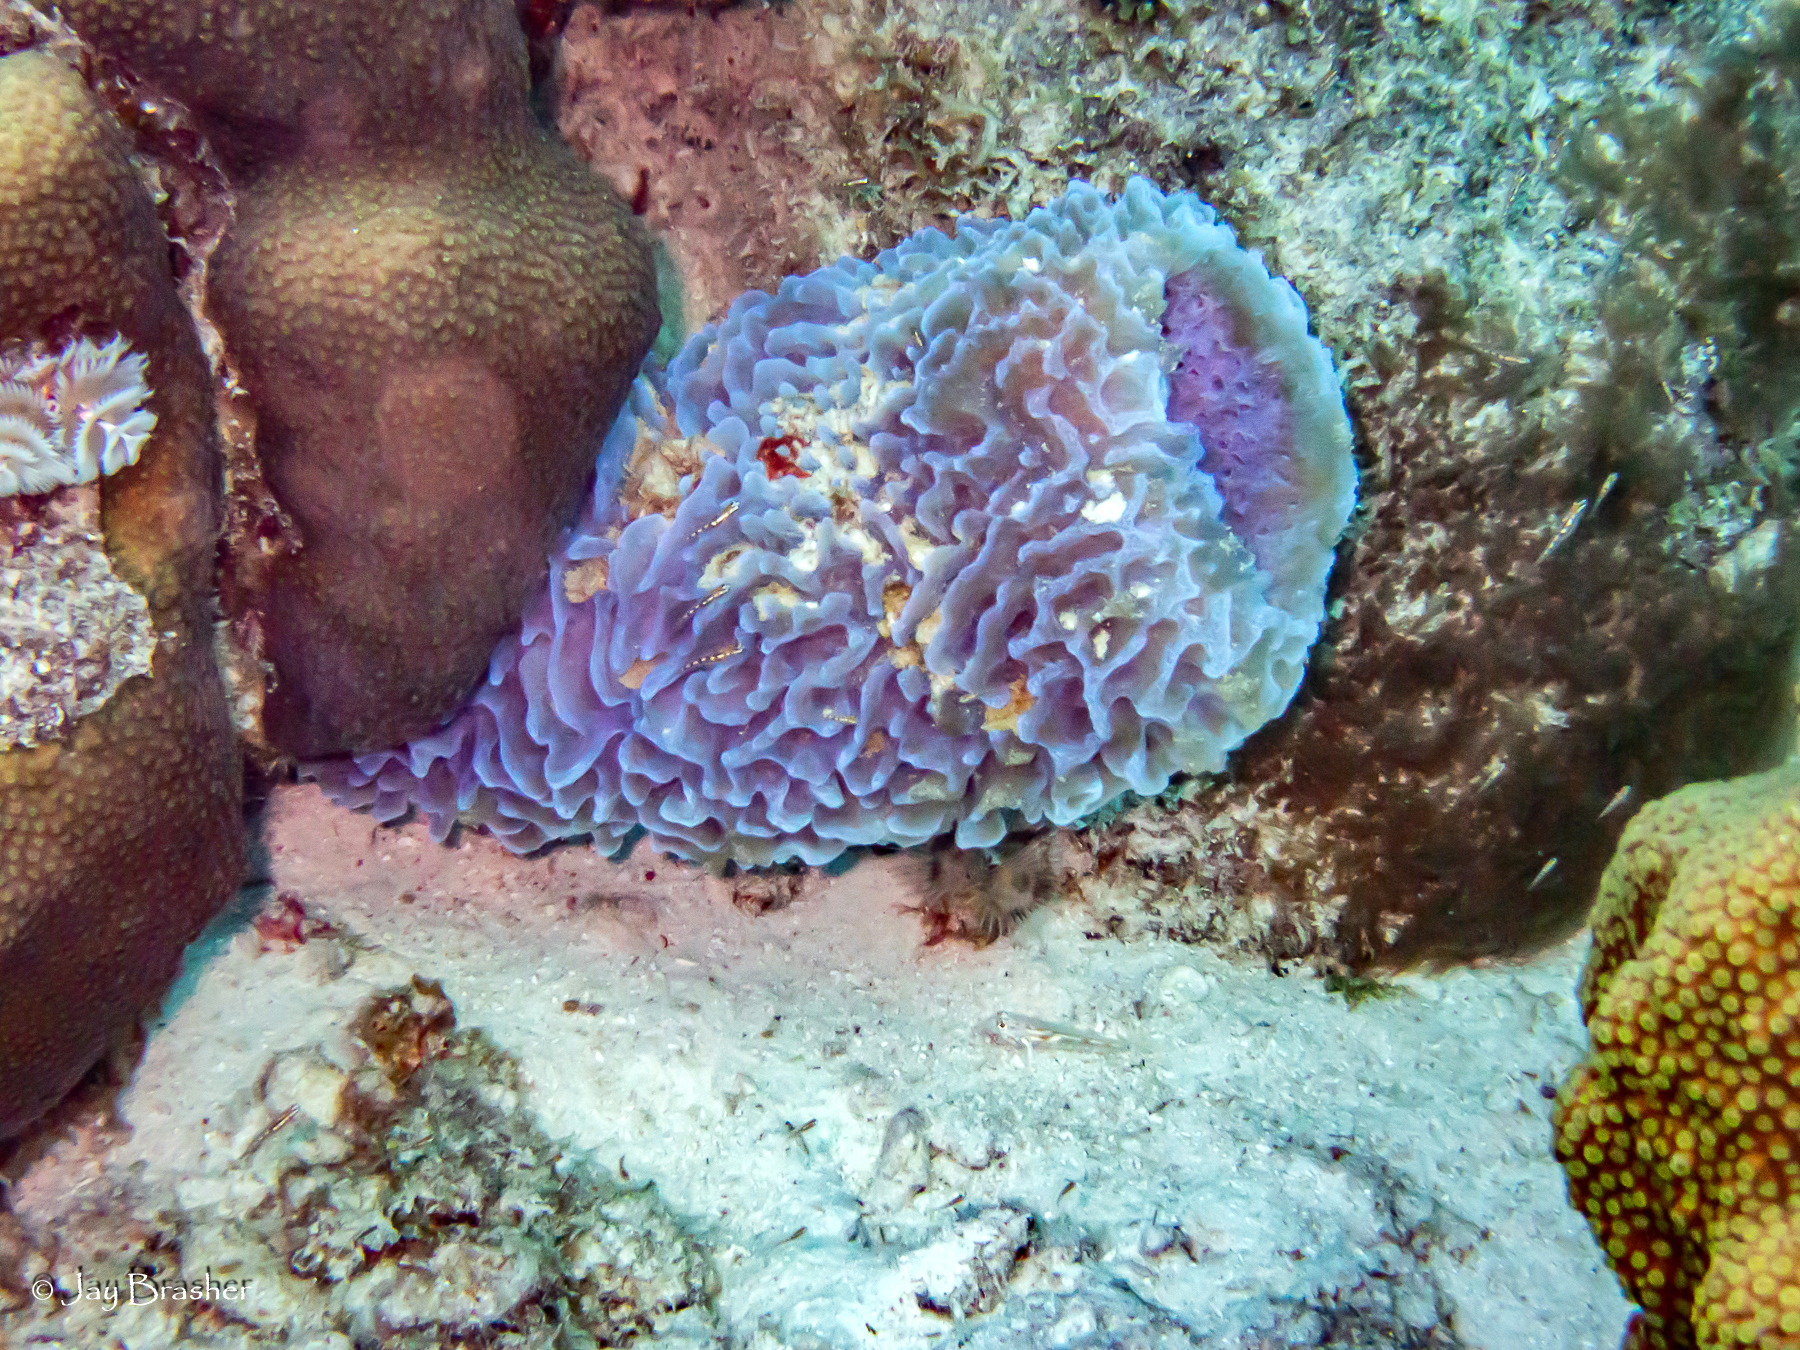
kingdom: Animalia
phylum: Porifera
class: Demospongiae
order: Haplosclerida
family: Callyspongiidae
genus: Callyspongia
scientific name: Callyspongia plicifera
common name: Azure vase sponge
